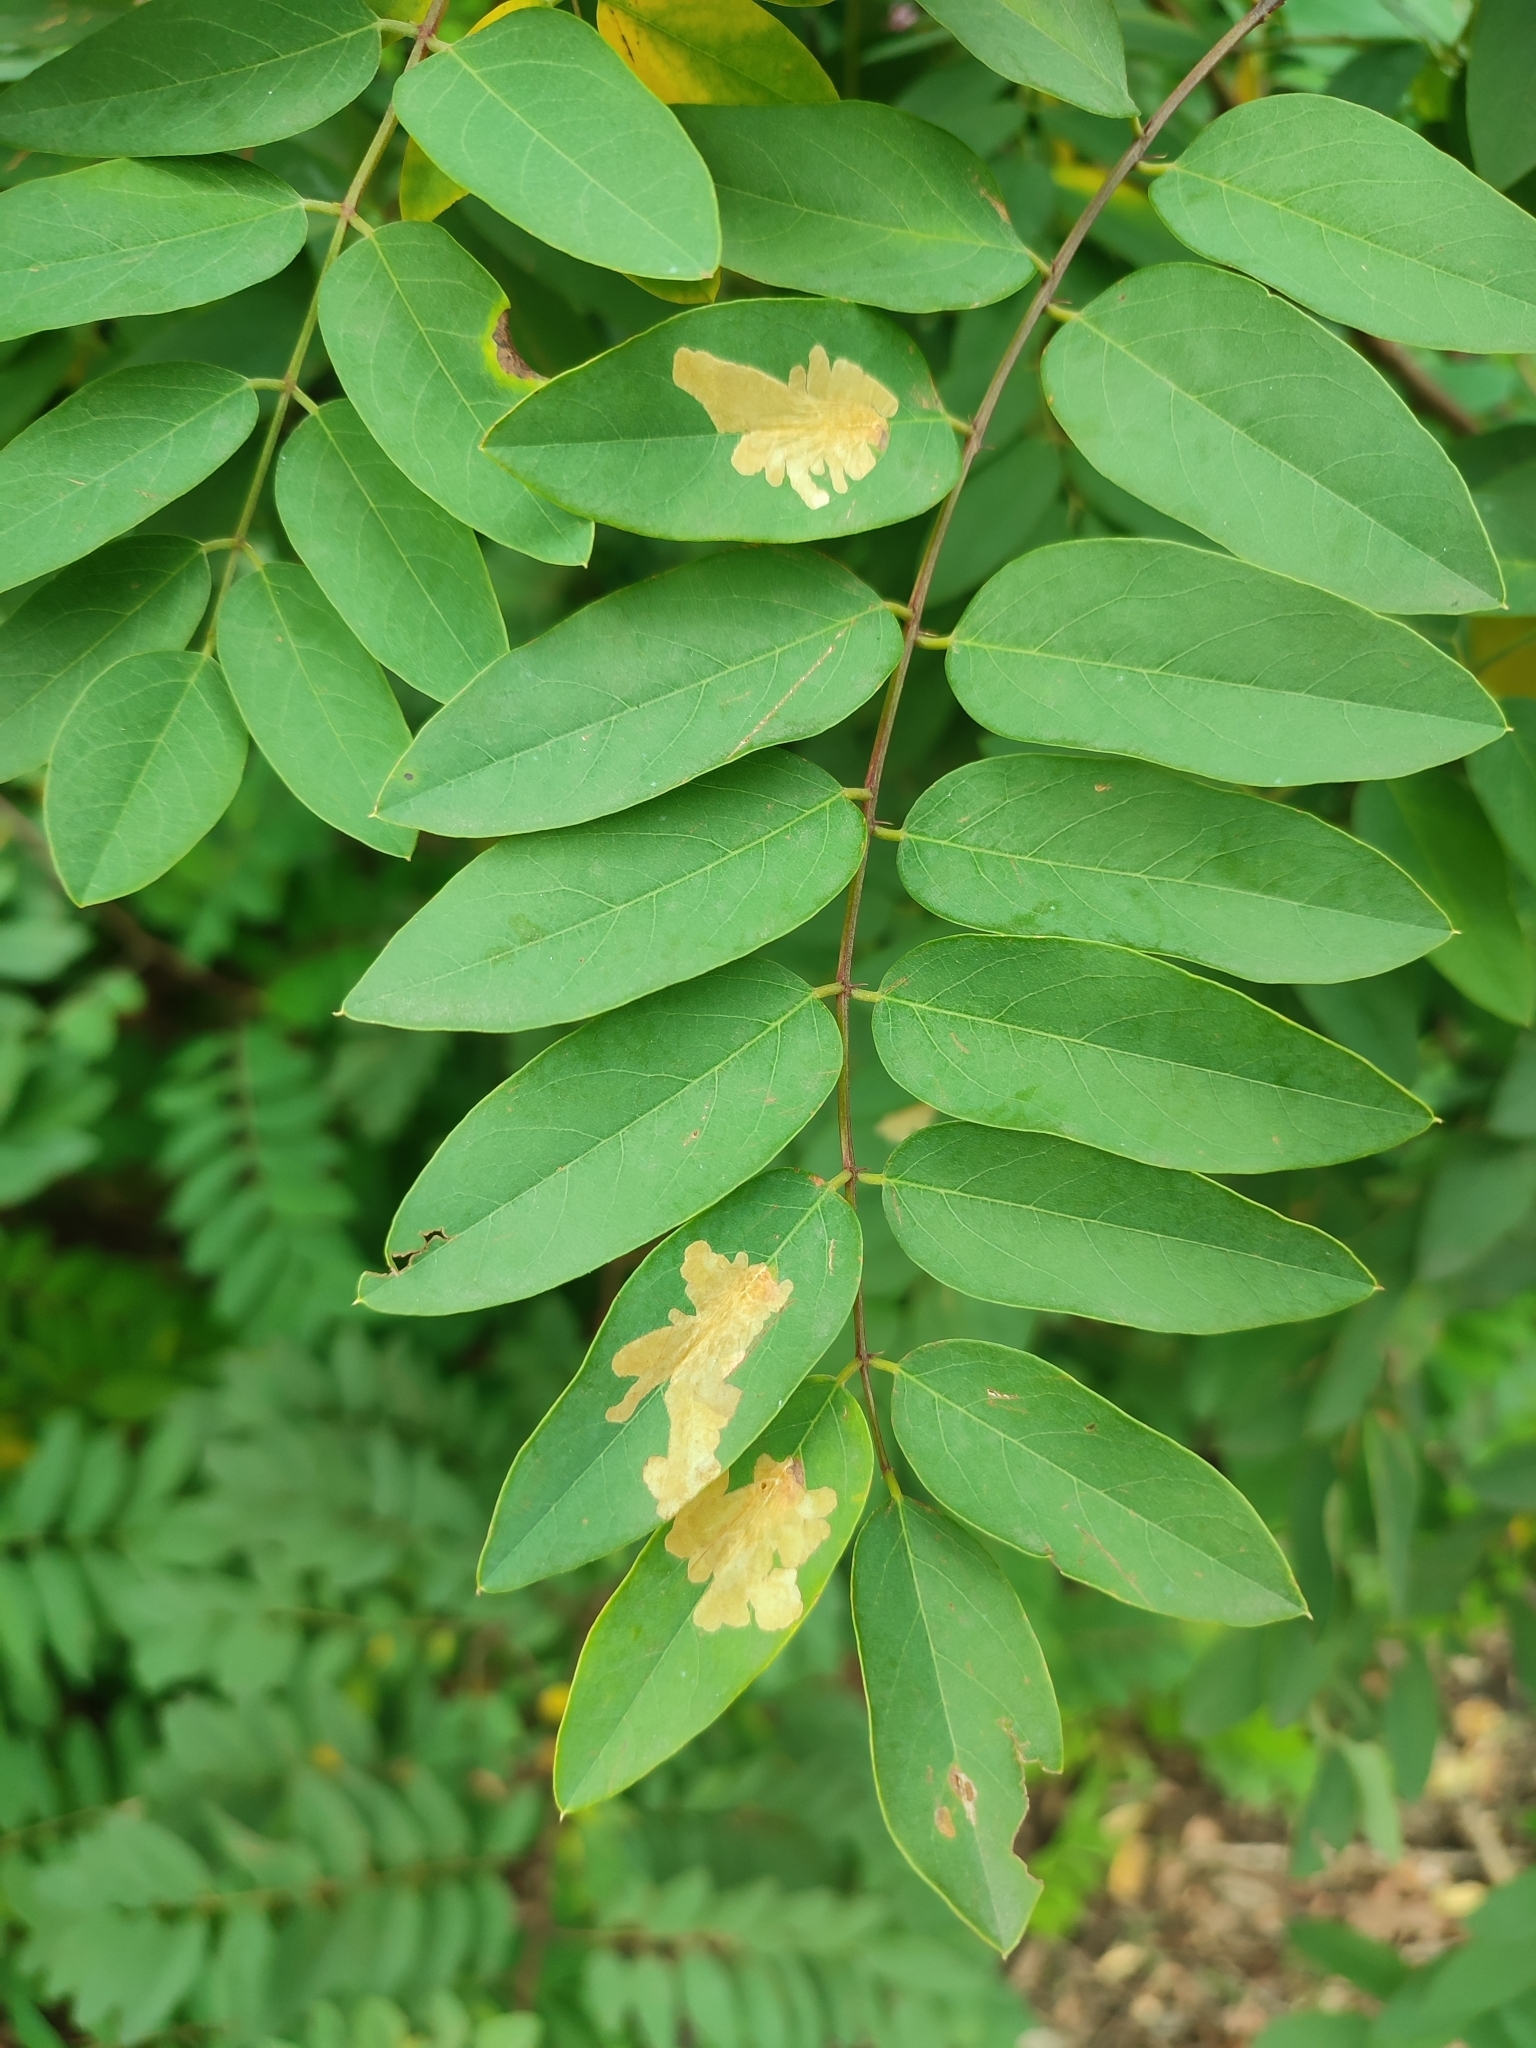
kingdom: Animalia
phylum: Arthropoda
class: Insecta
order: Lepidoptera
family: Gracillariidae
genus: Parectopa
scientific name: Parectopa robiniella
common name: Locust digitate leafminer
